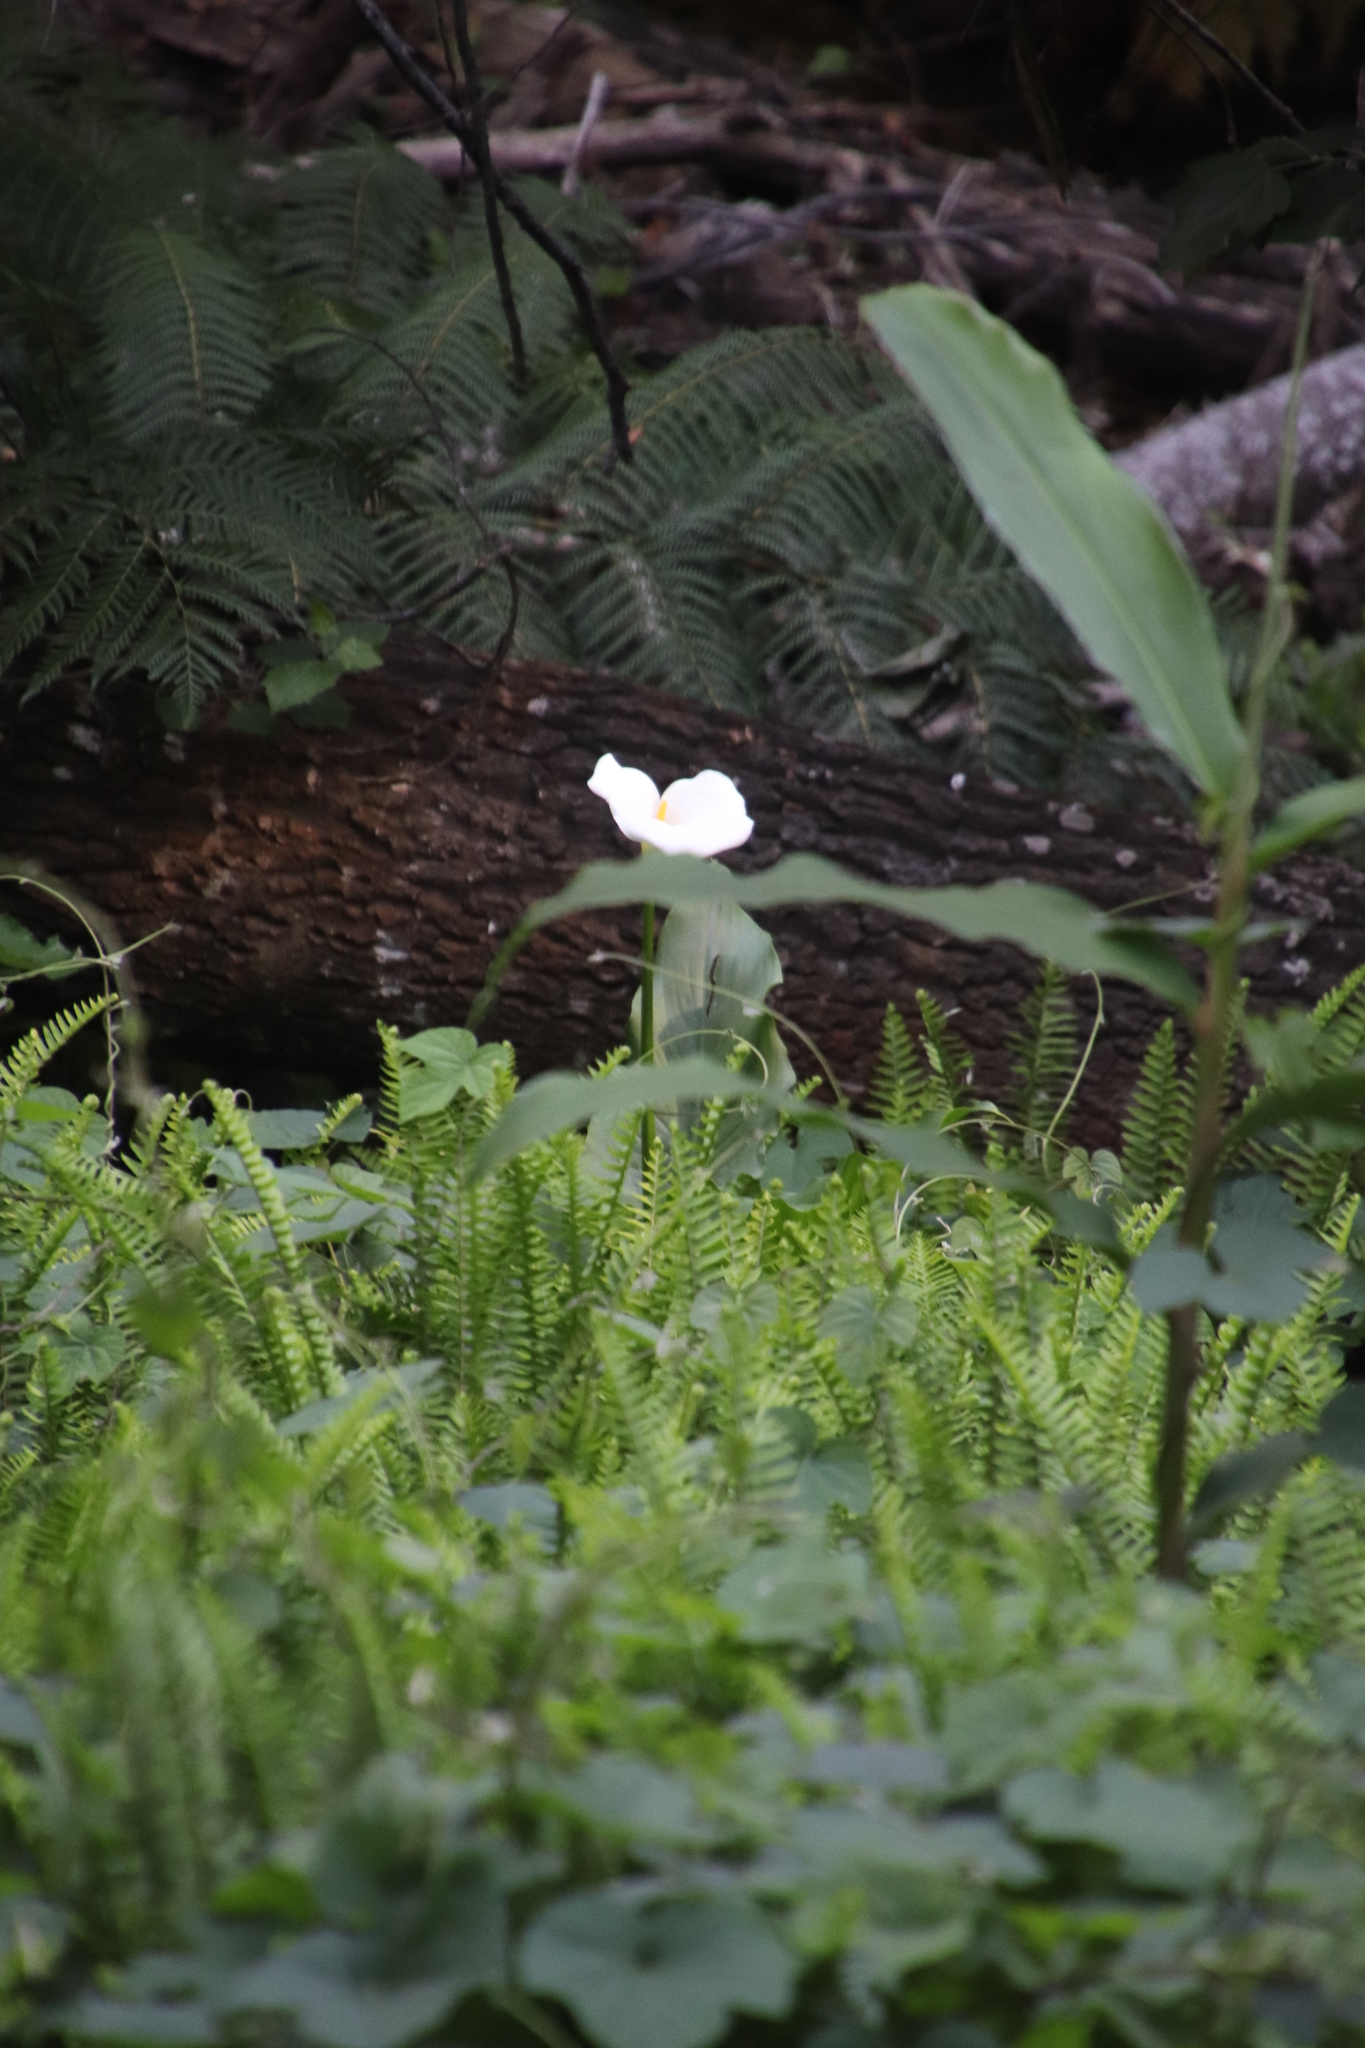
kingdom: Plantae
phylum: Tracheophyta
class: Liliopsida
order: Alismatales
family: Araceae
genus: Zantedeschia
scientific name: Zantedeschia aethiopica
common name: Altar-lily
